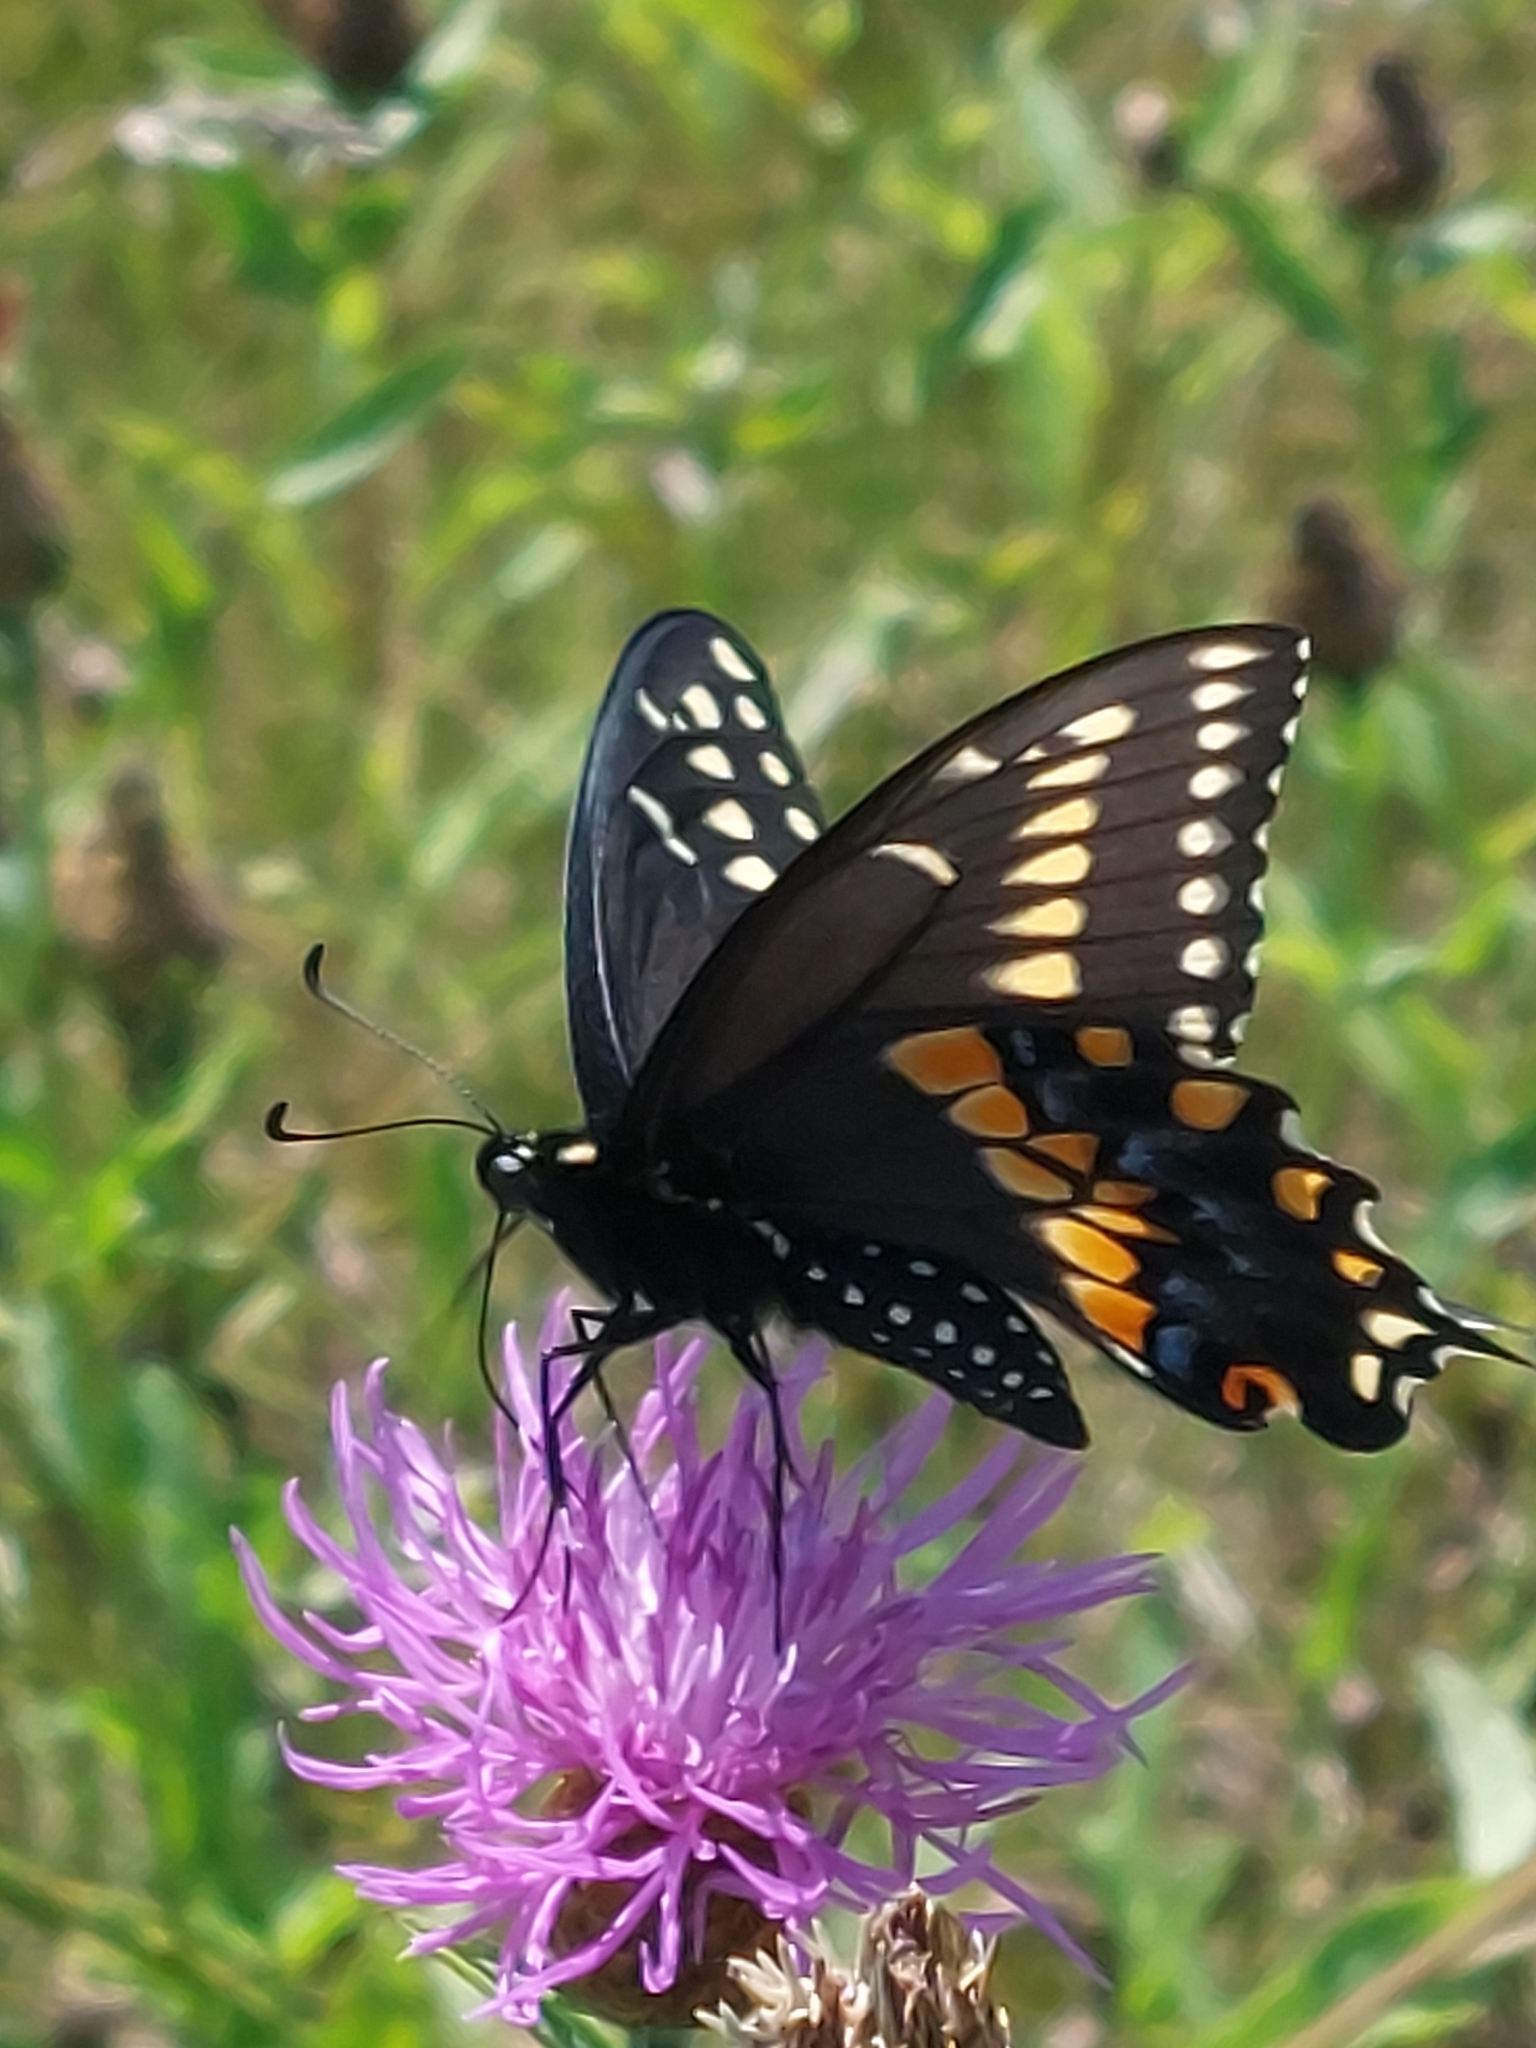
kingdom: Animalia
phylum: Arthropoda
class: Insecta
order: Lepidoptera
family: Papilionidae
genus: Papilio
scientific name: Papilio polyxenes
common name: Black swallowtail
